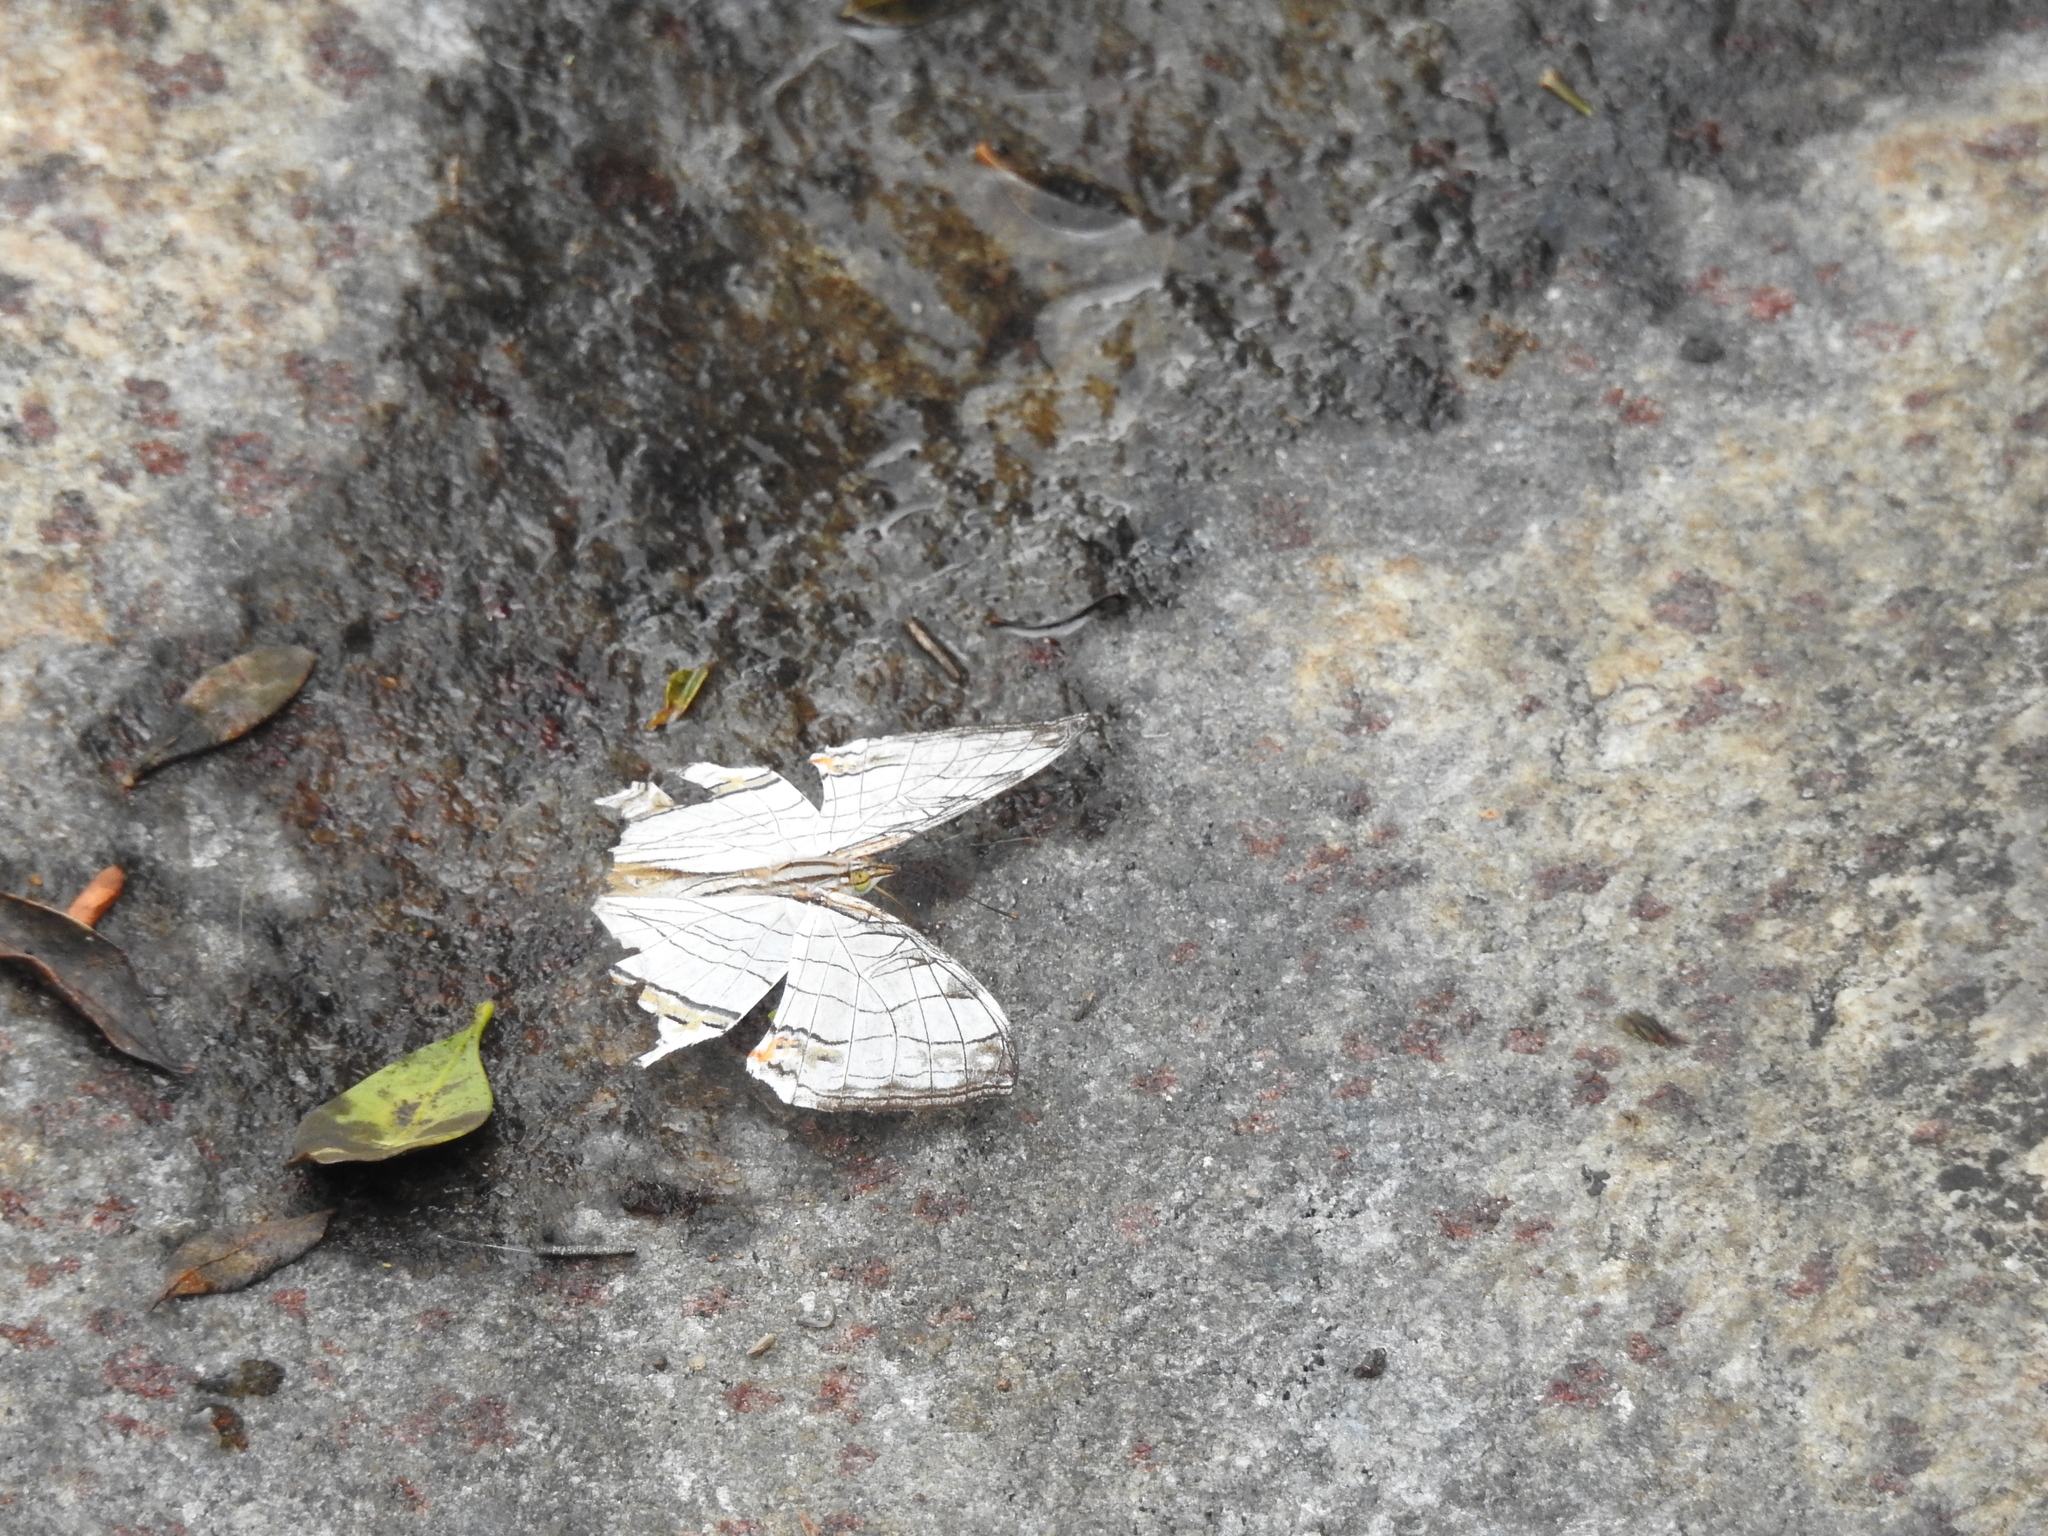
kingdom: Animalia
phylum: Arthropoda
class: Insecta
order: Lepidoptera
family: Nymphalidae
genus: Cyrestis
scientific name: Cyrestis thyodamas
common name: Common mapwing
